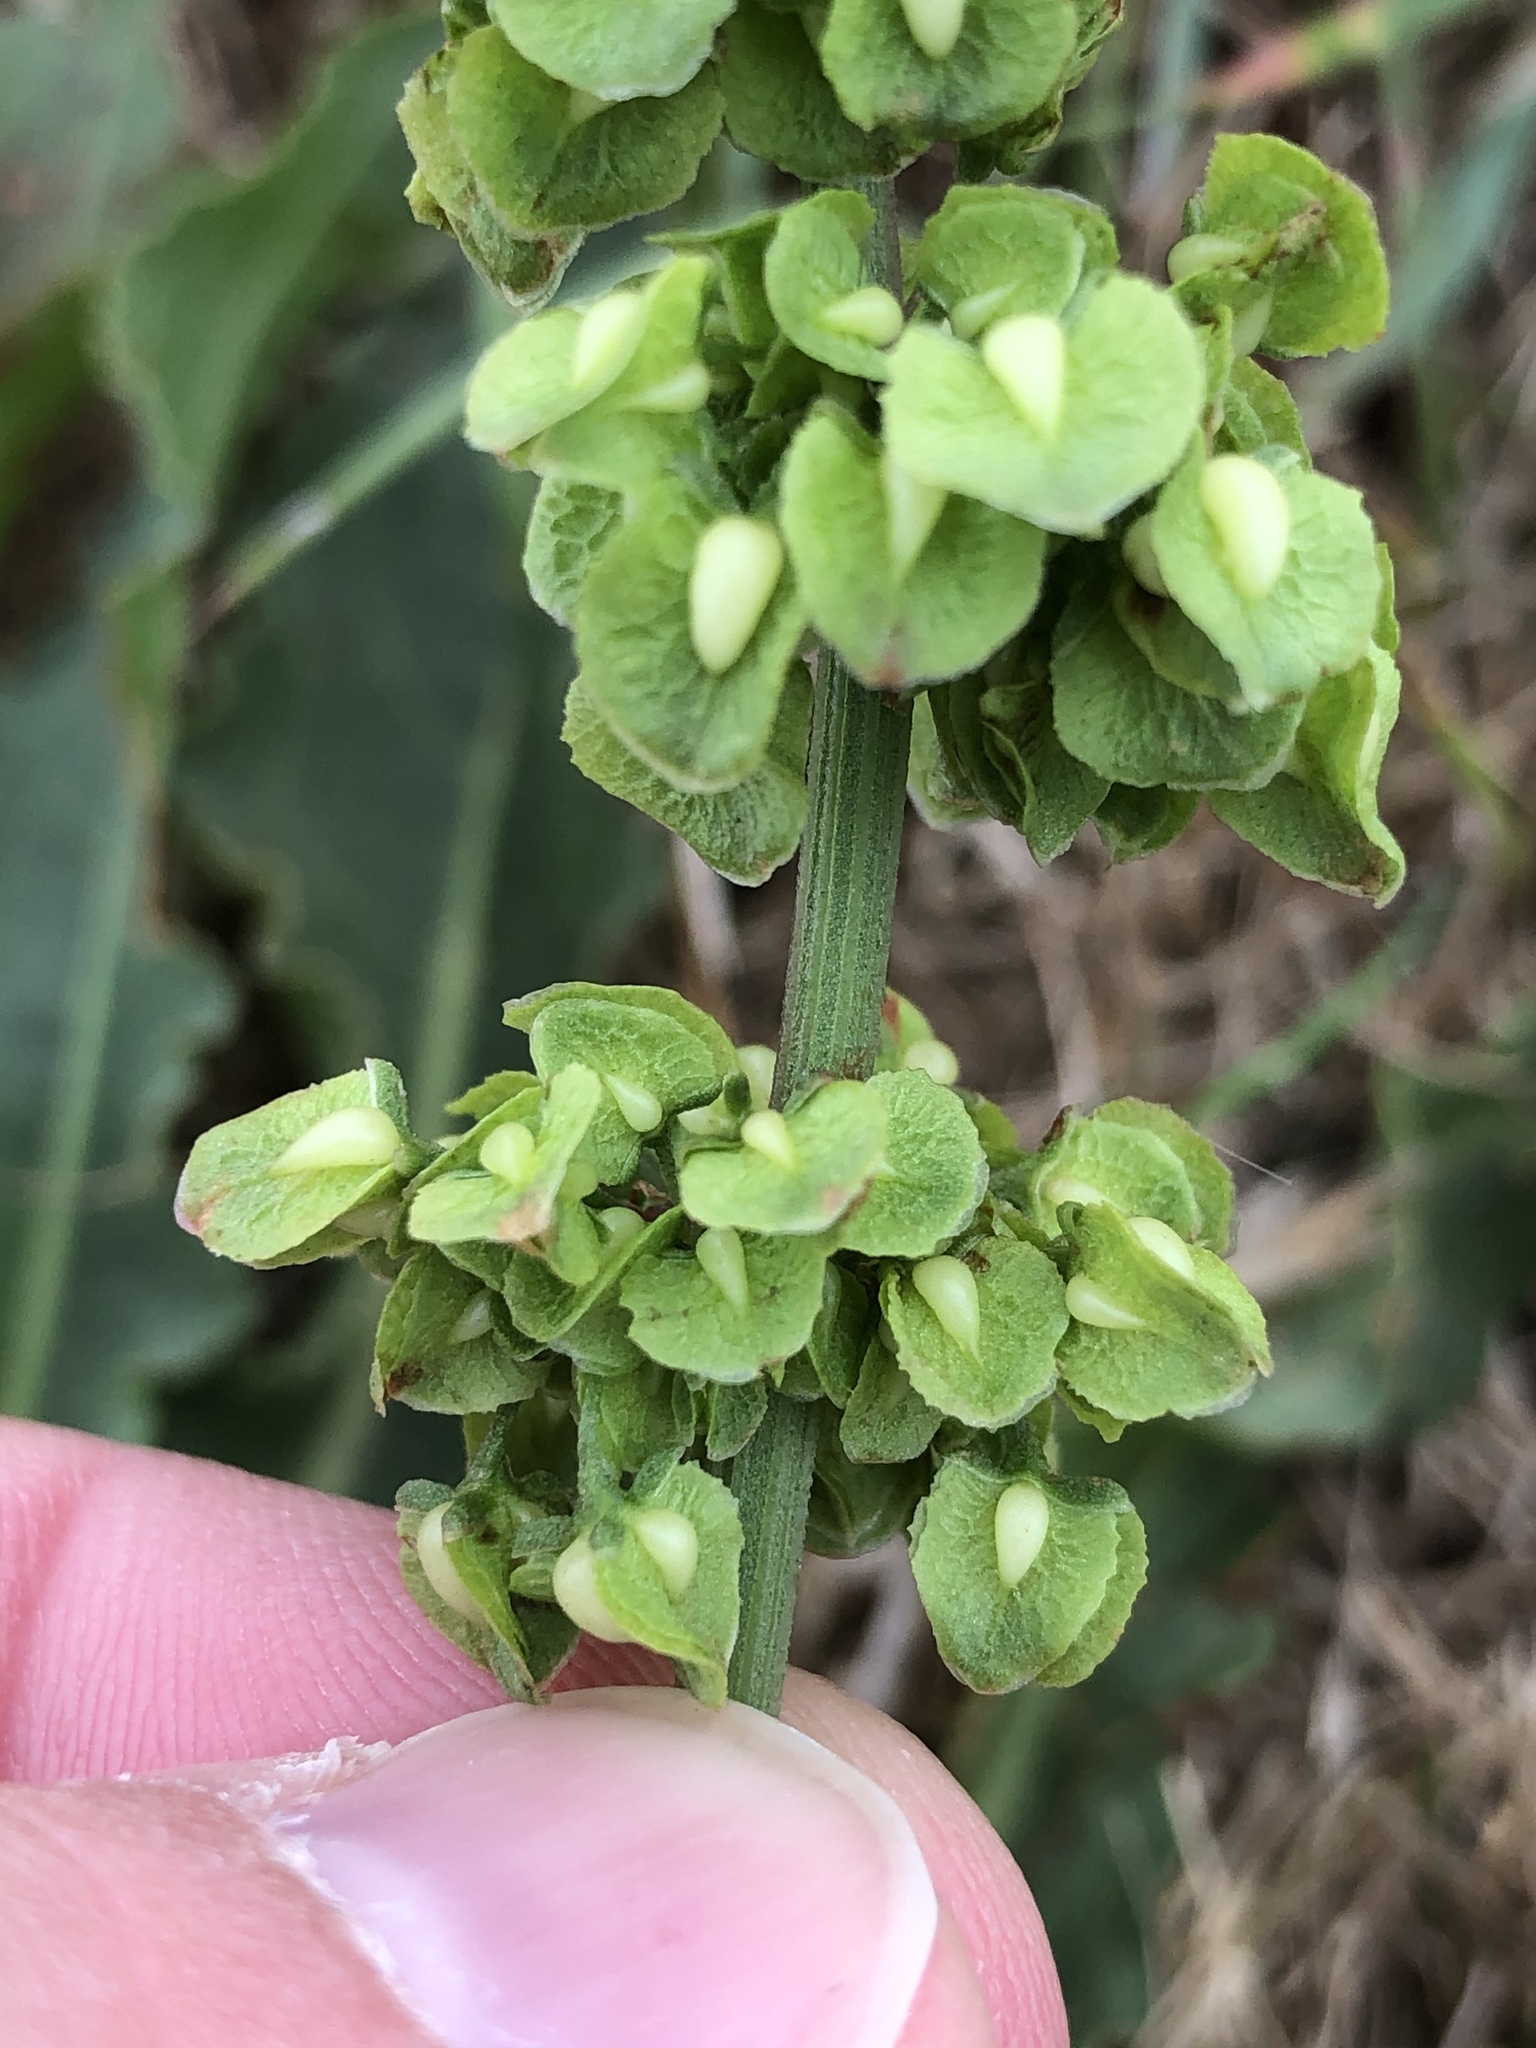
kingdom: Plantae
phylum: Tracheophyta
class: Magnoliopsida
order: Caryophyllales
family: Polygonaceae
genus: Rumex
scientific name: Rumex crispus
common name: Curled dock
